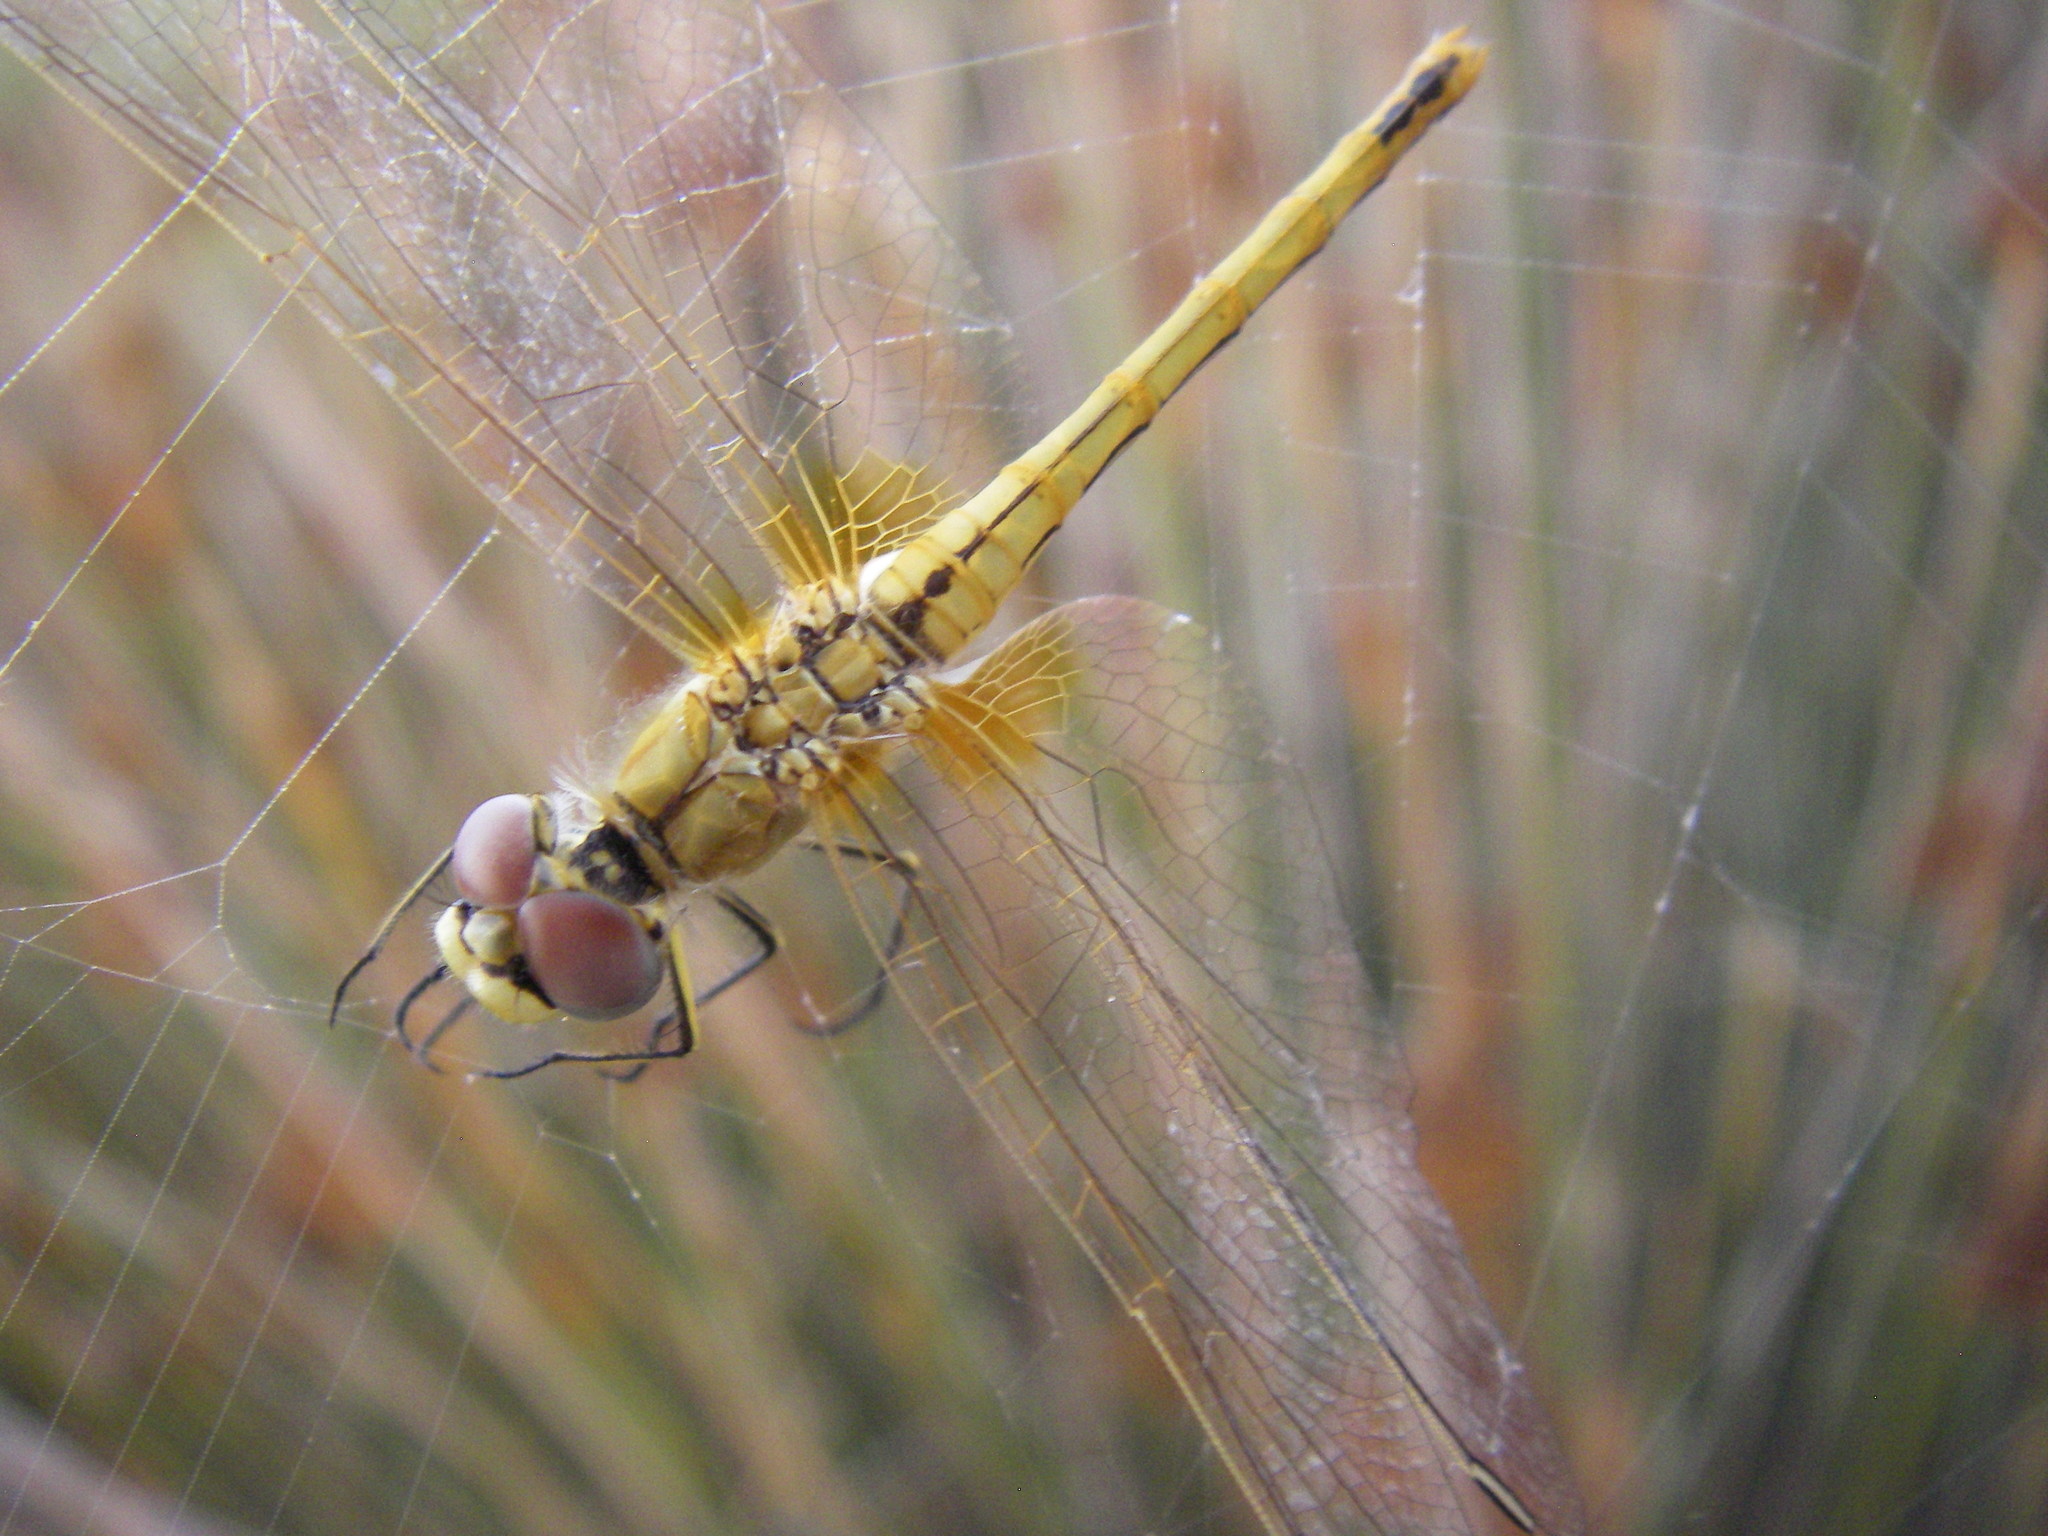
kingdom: Animalia
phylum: Arthropoda
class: Insecta
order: Odonata
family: Libellulidae
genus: Sympetrum
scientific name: Sympetrum fonscolombii
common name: Red-veined darter
